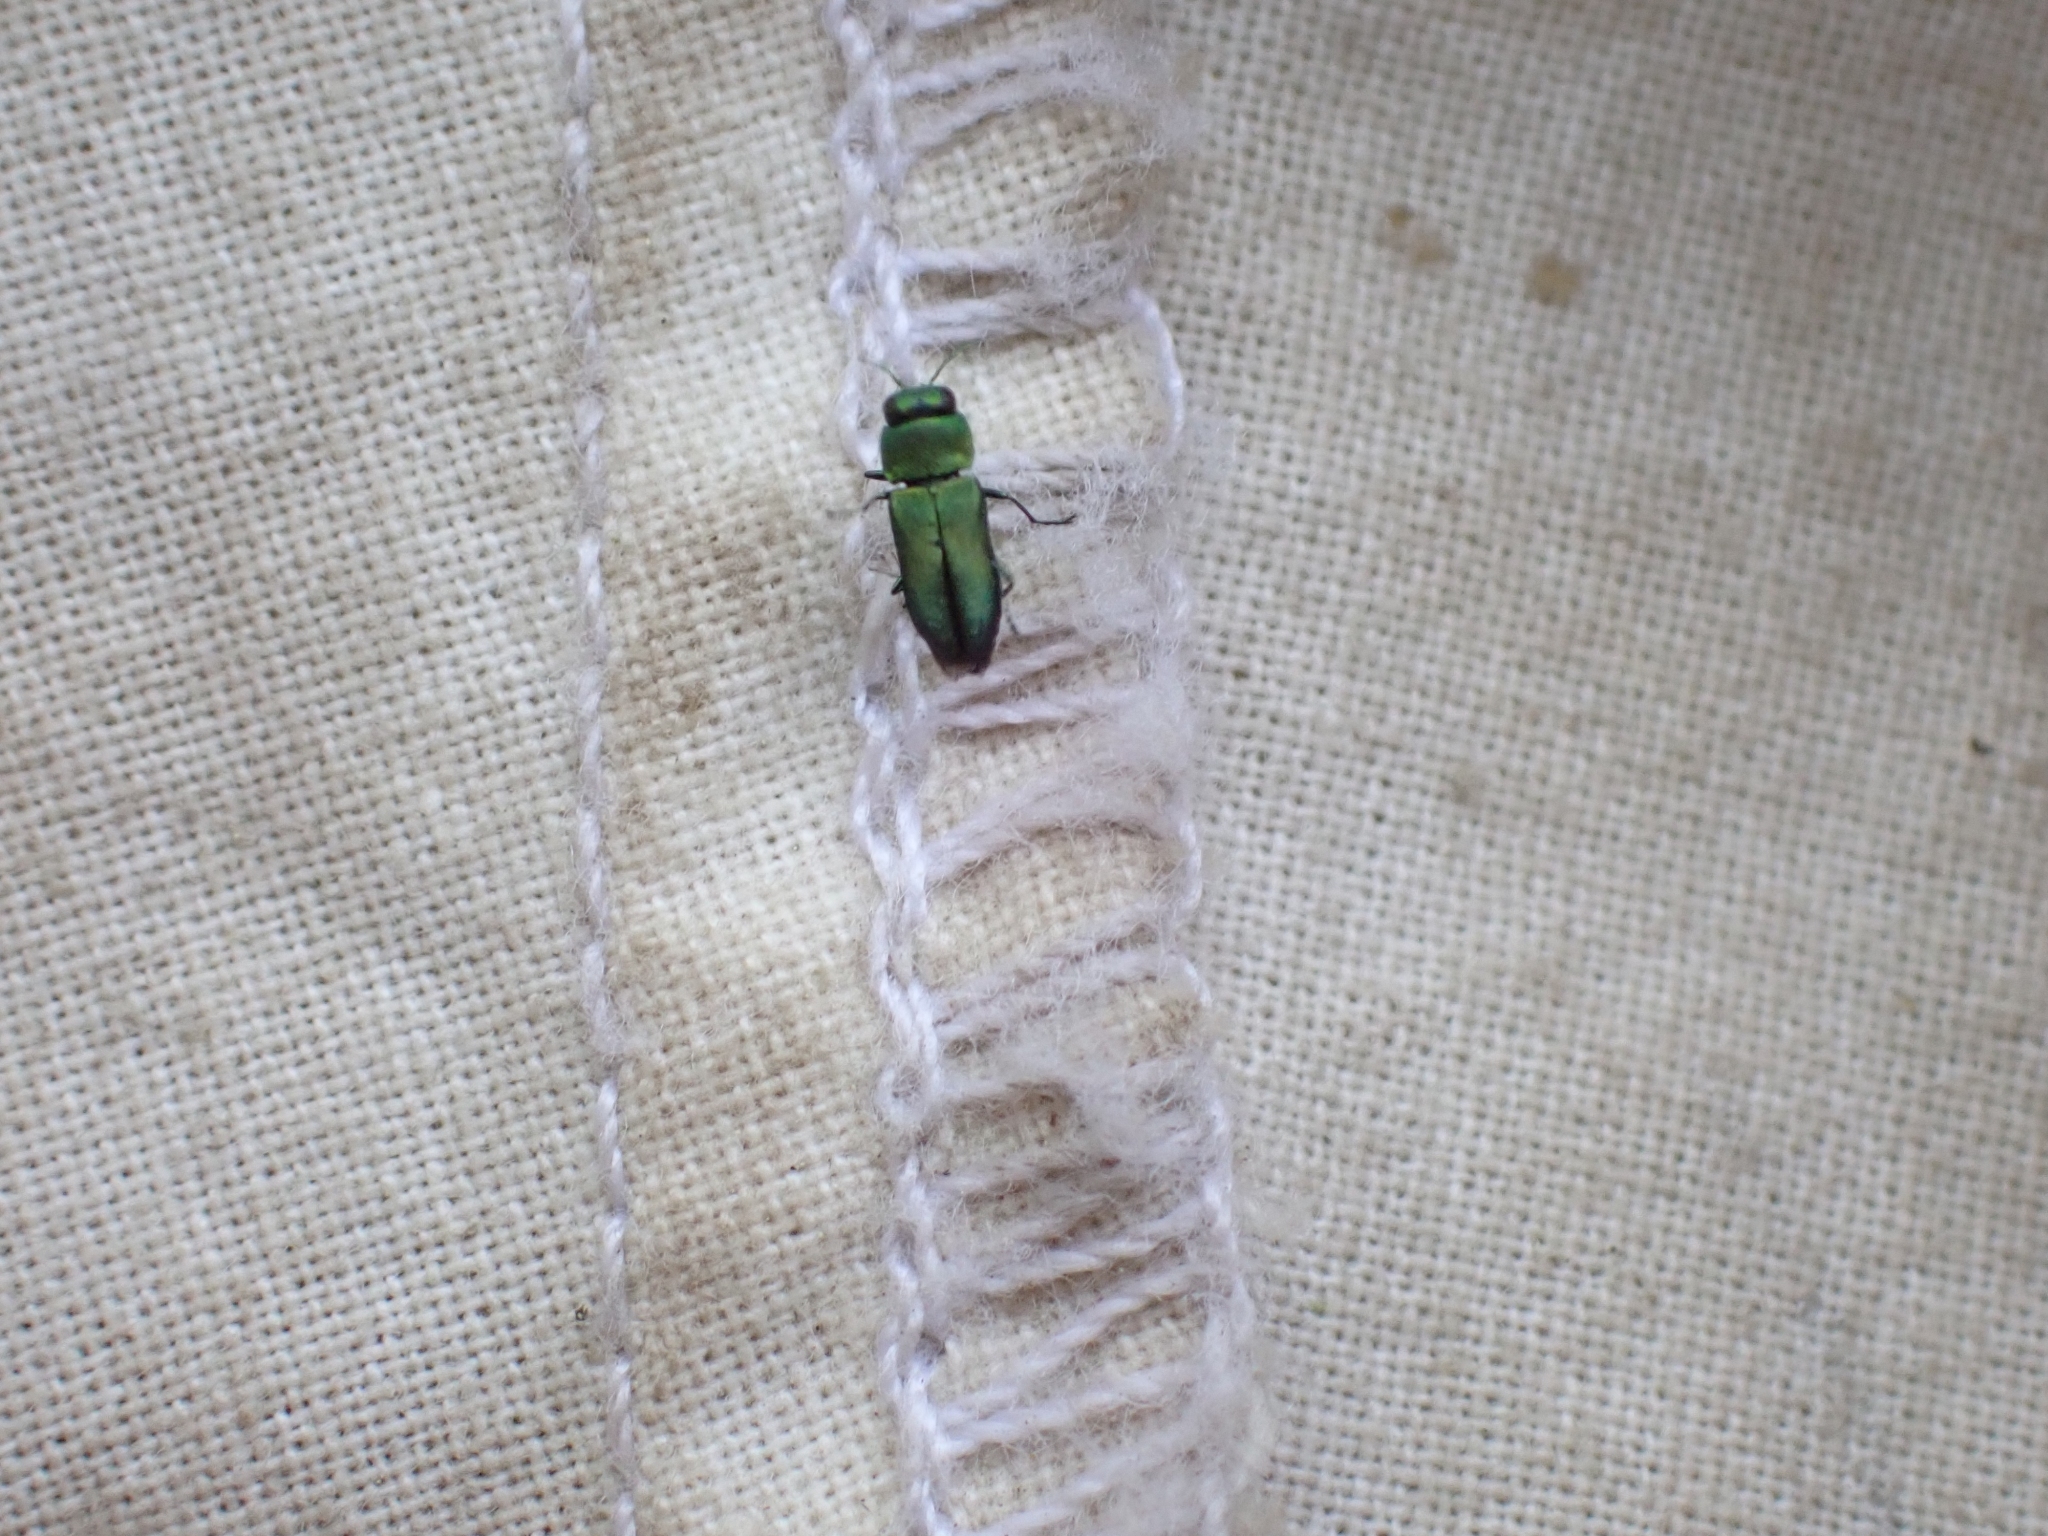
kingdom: Animalia
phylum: Arthropoda
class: Insecta
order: Coleoptera
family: Buprestidae
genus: Anthaxia
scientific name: Anthaxia caseyi
